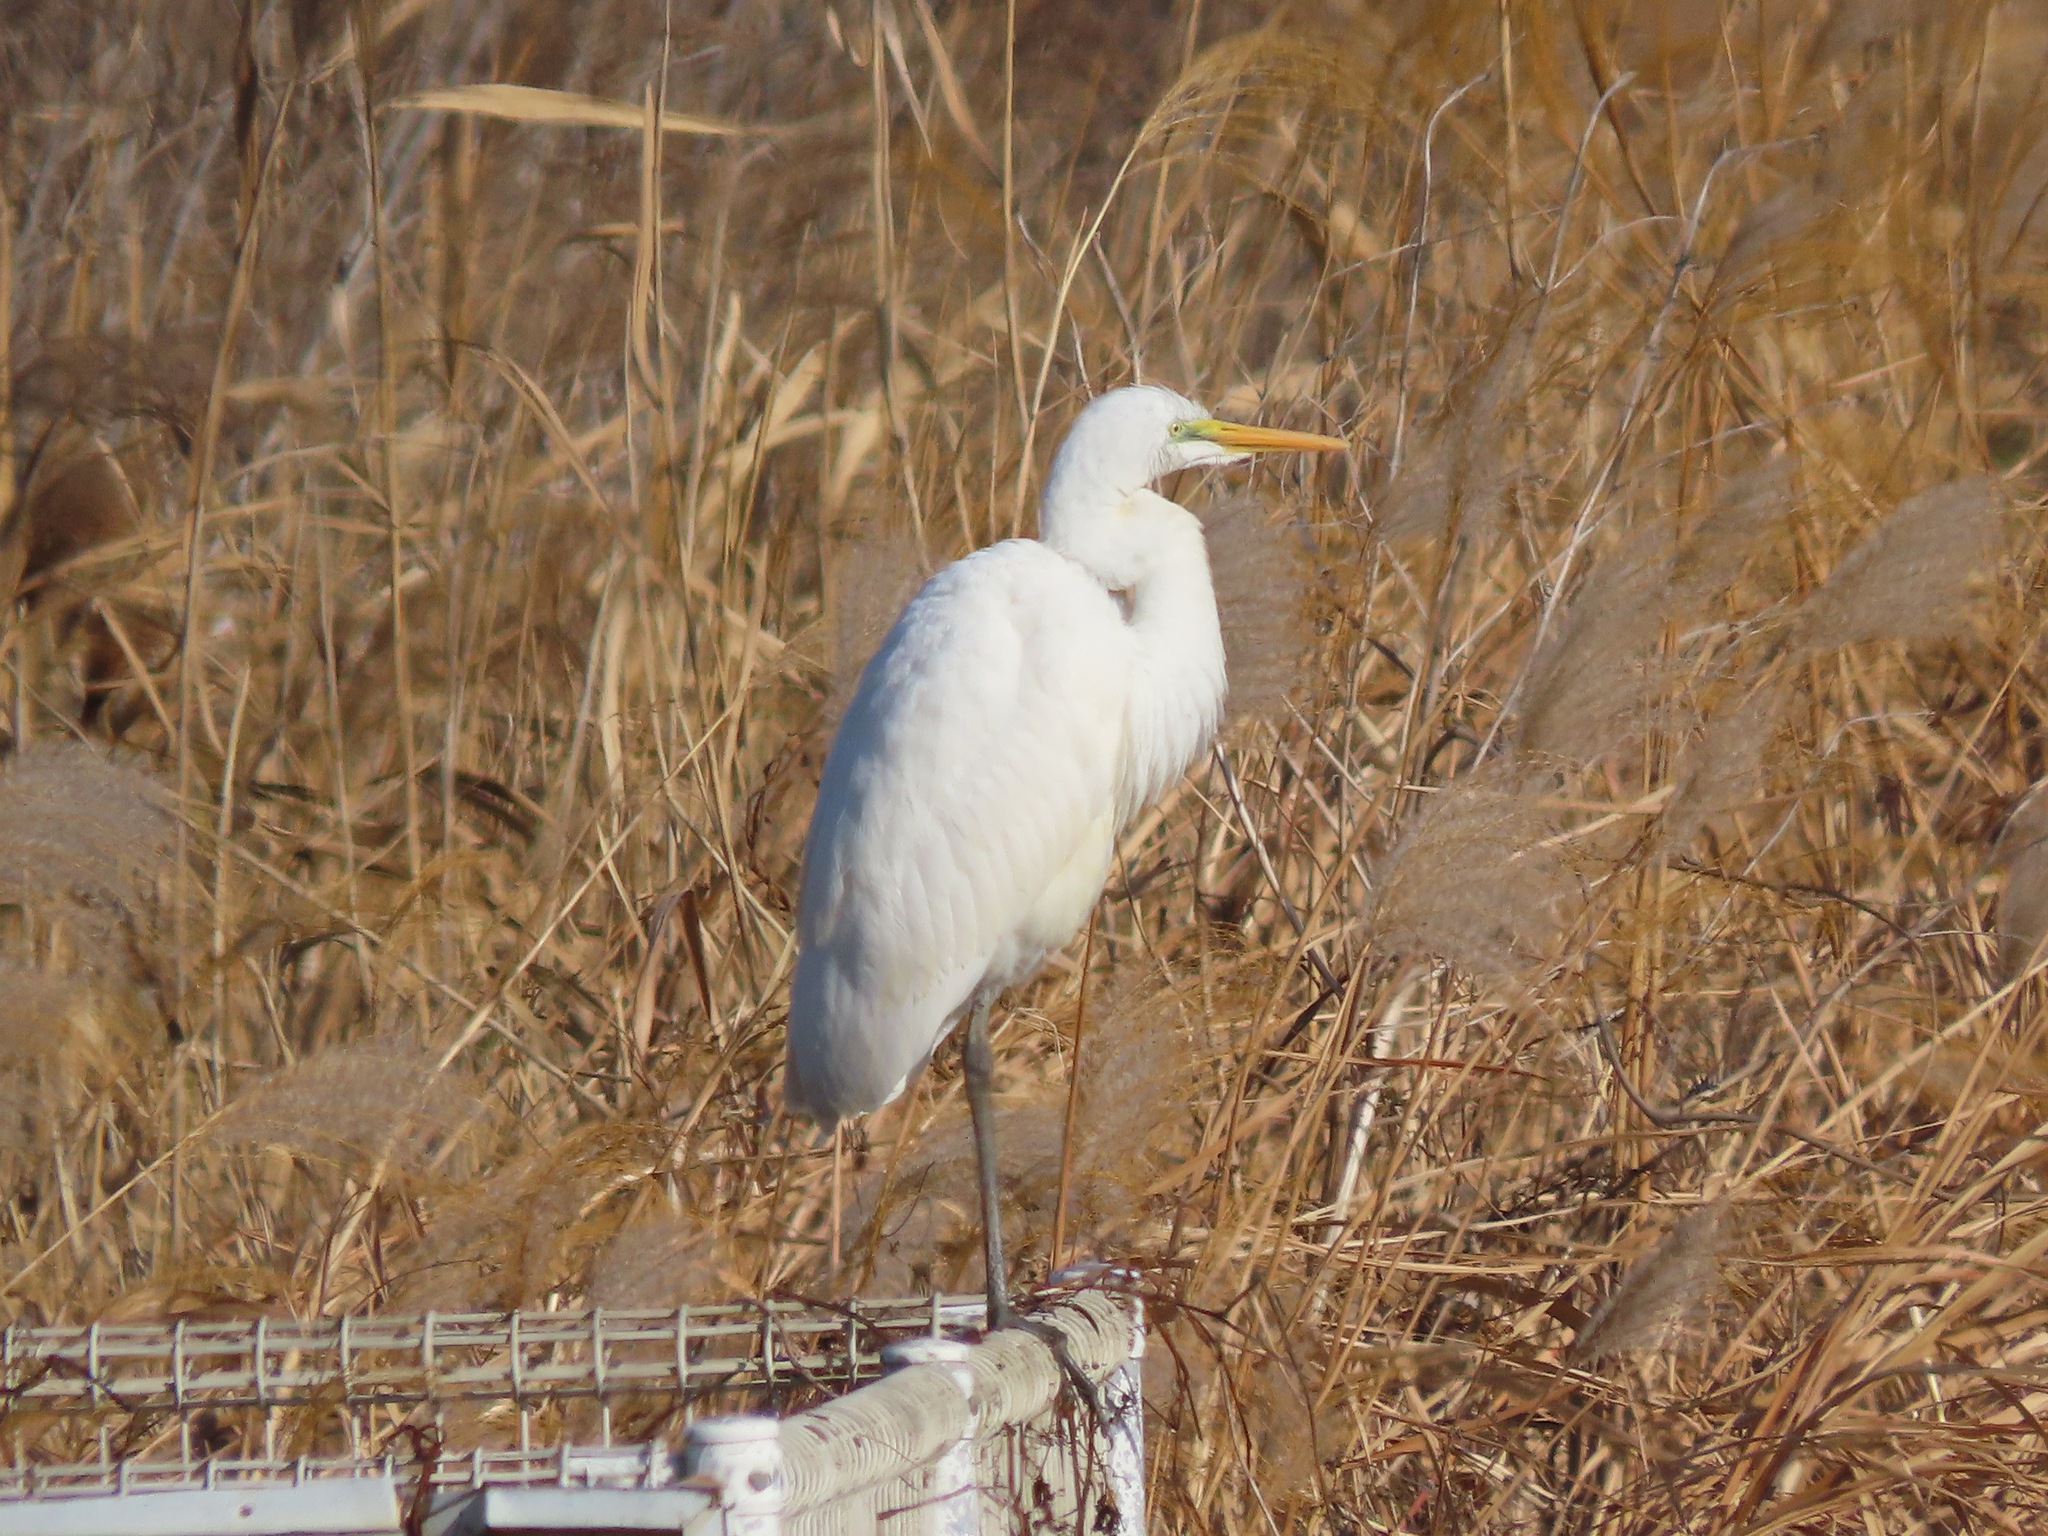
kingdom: Animalia
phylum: Chordata
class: Aves
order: Pelecaniformes
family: Ardeidae
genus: Ardea
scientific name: Ardea alba
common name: Great egret
